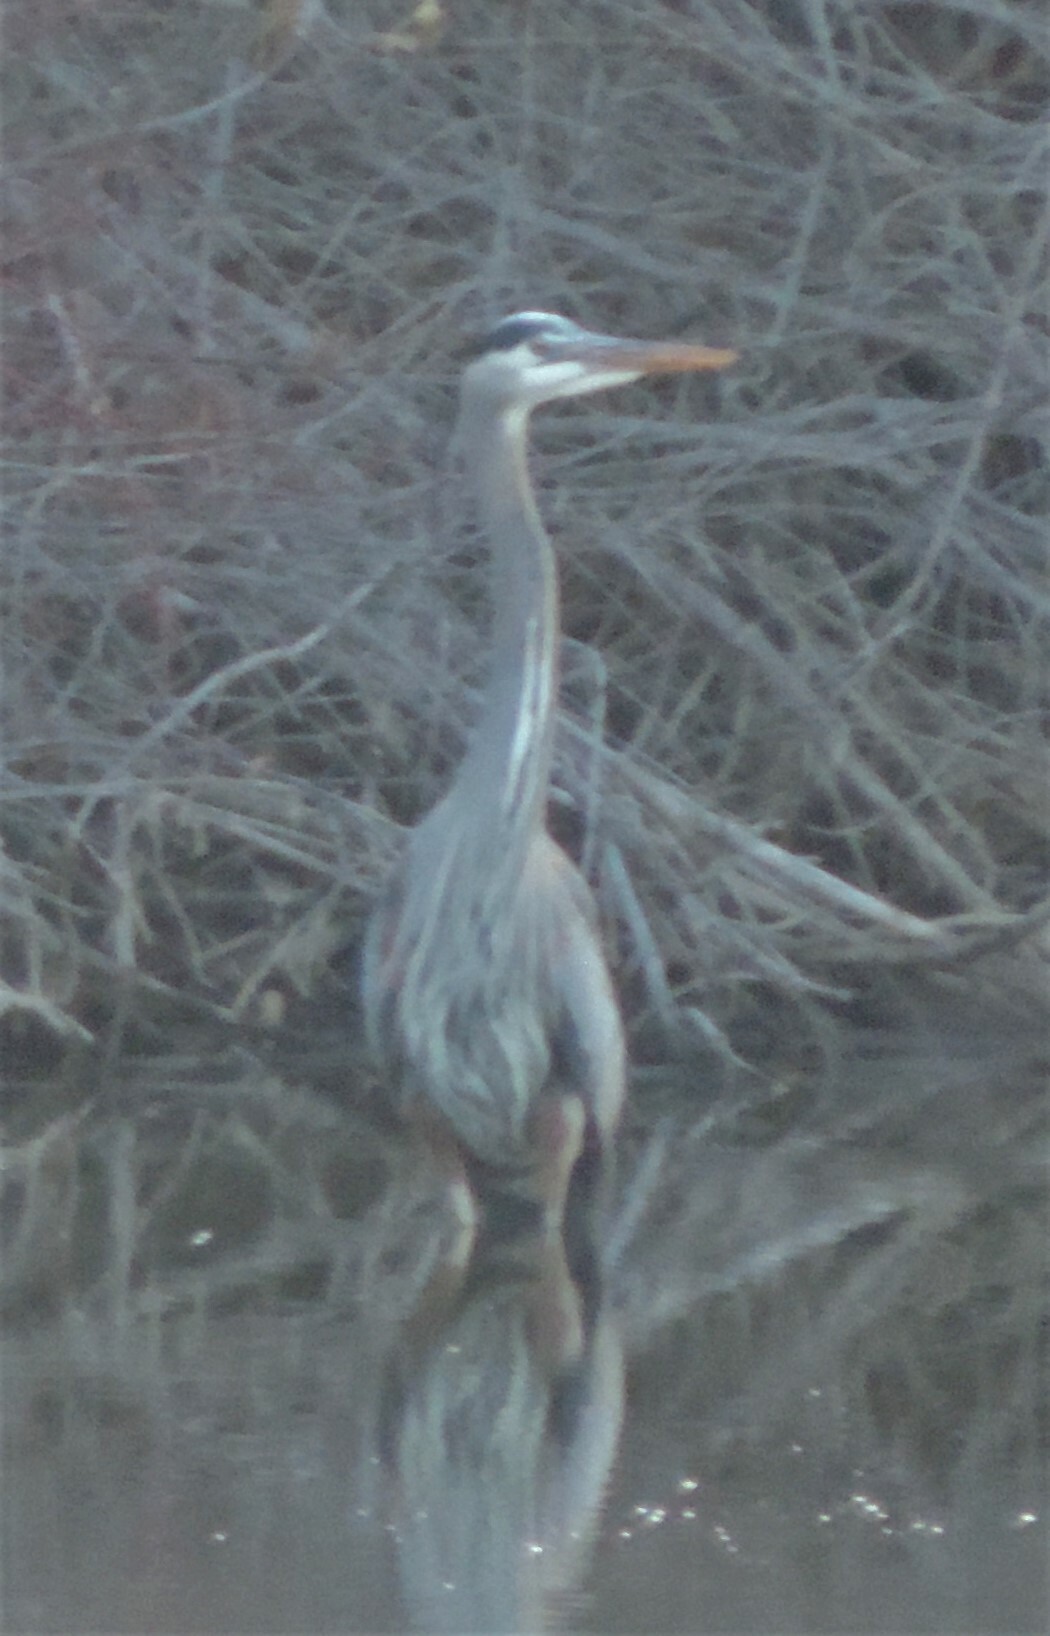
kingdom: Animalia
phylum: Chordata
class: Aves
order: Pelecaniformes
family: Ardeidae
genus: Ardea
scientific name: Ardea herodias
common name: Great blue heron
